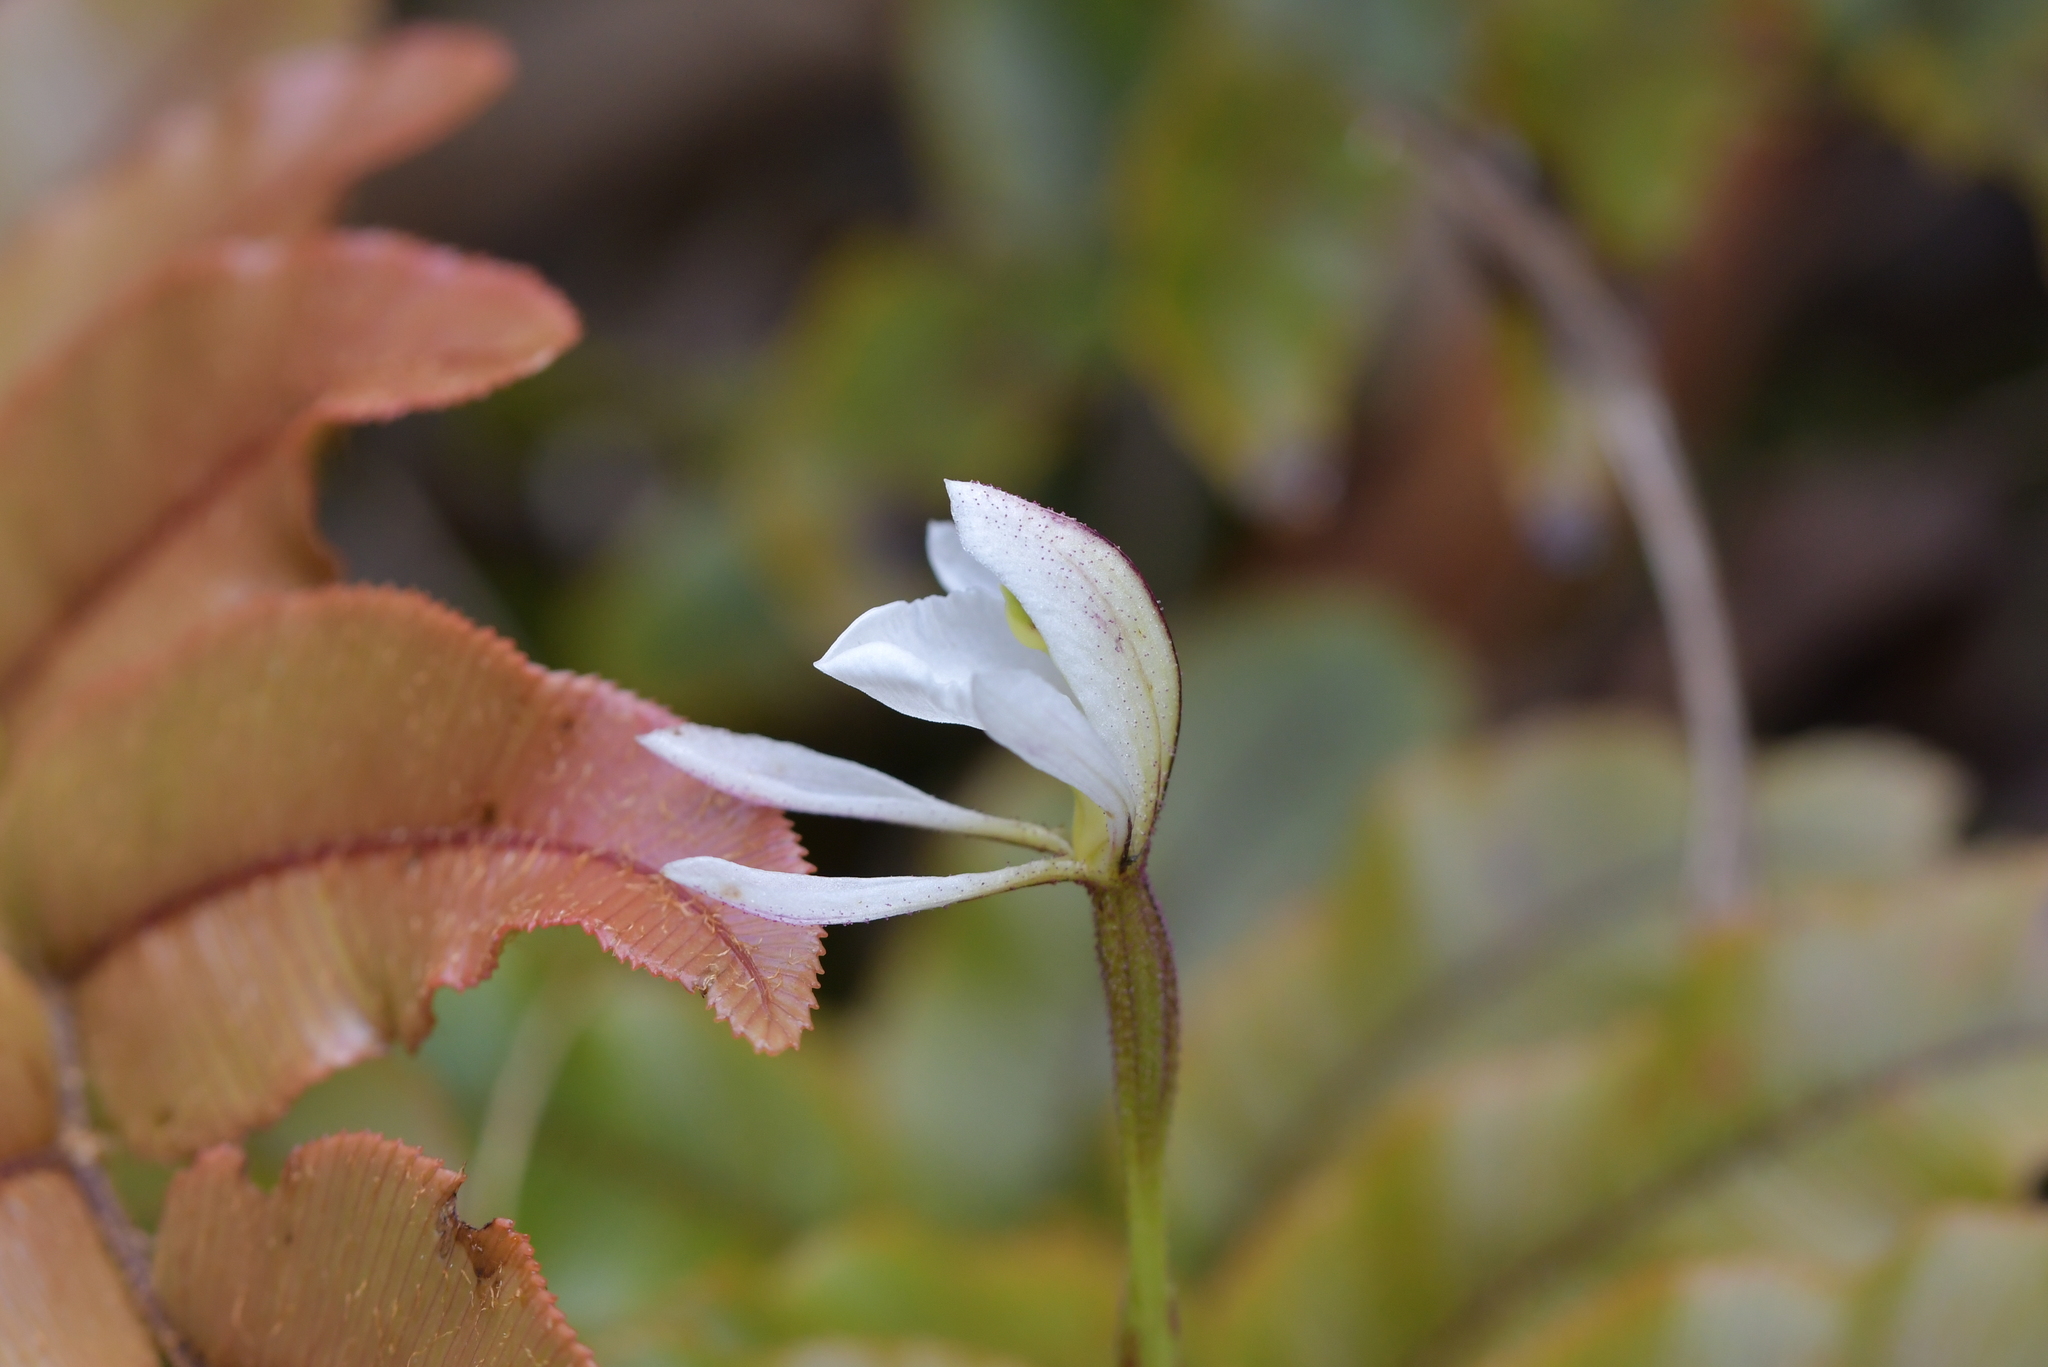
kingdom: Plantae
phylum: Tracheophyta
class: Liliopsida
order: Asparagales
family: Orchidaceae
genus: Aporostylis
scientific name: Aporostylis bifolia
